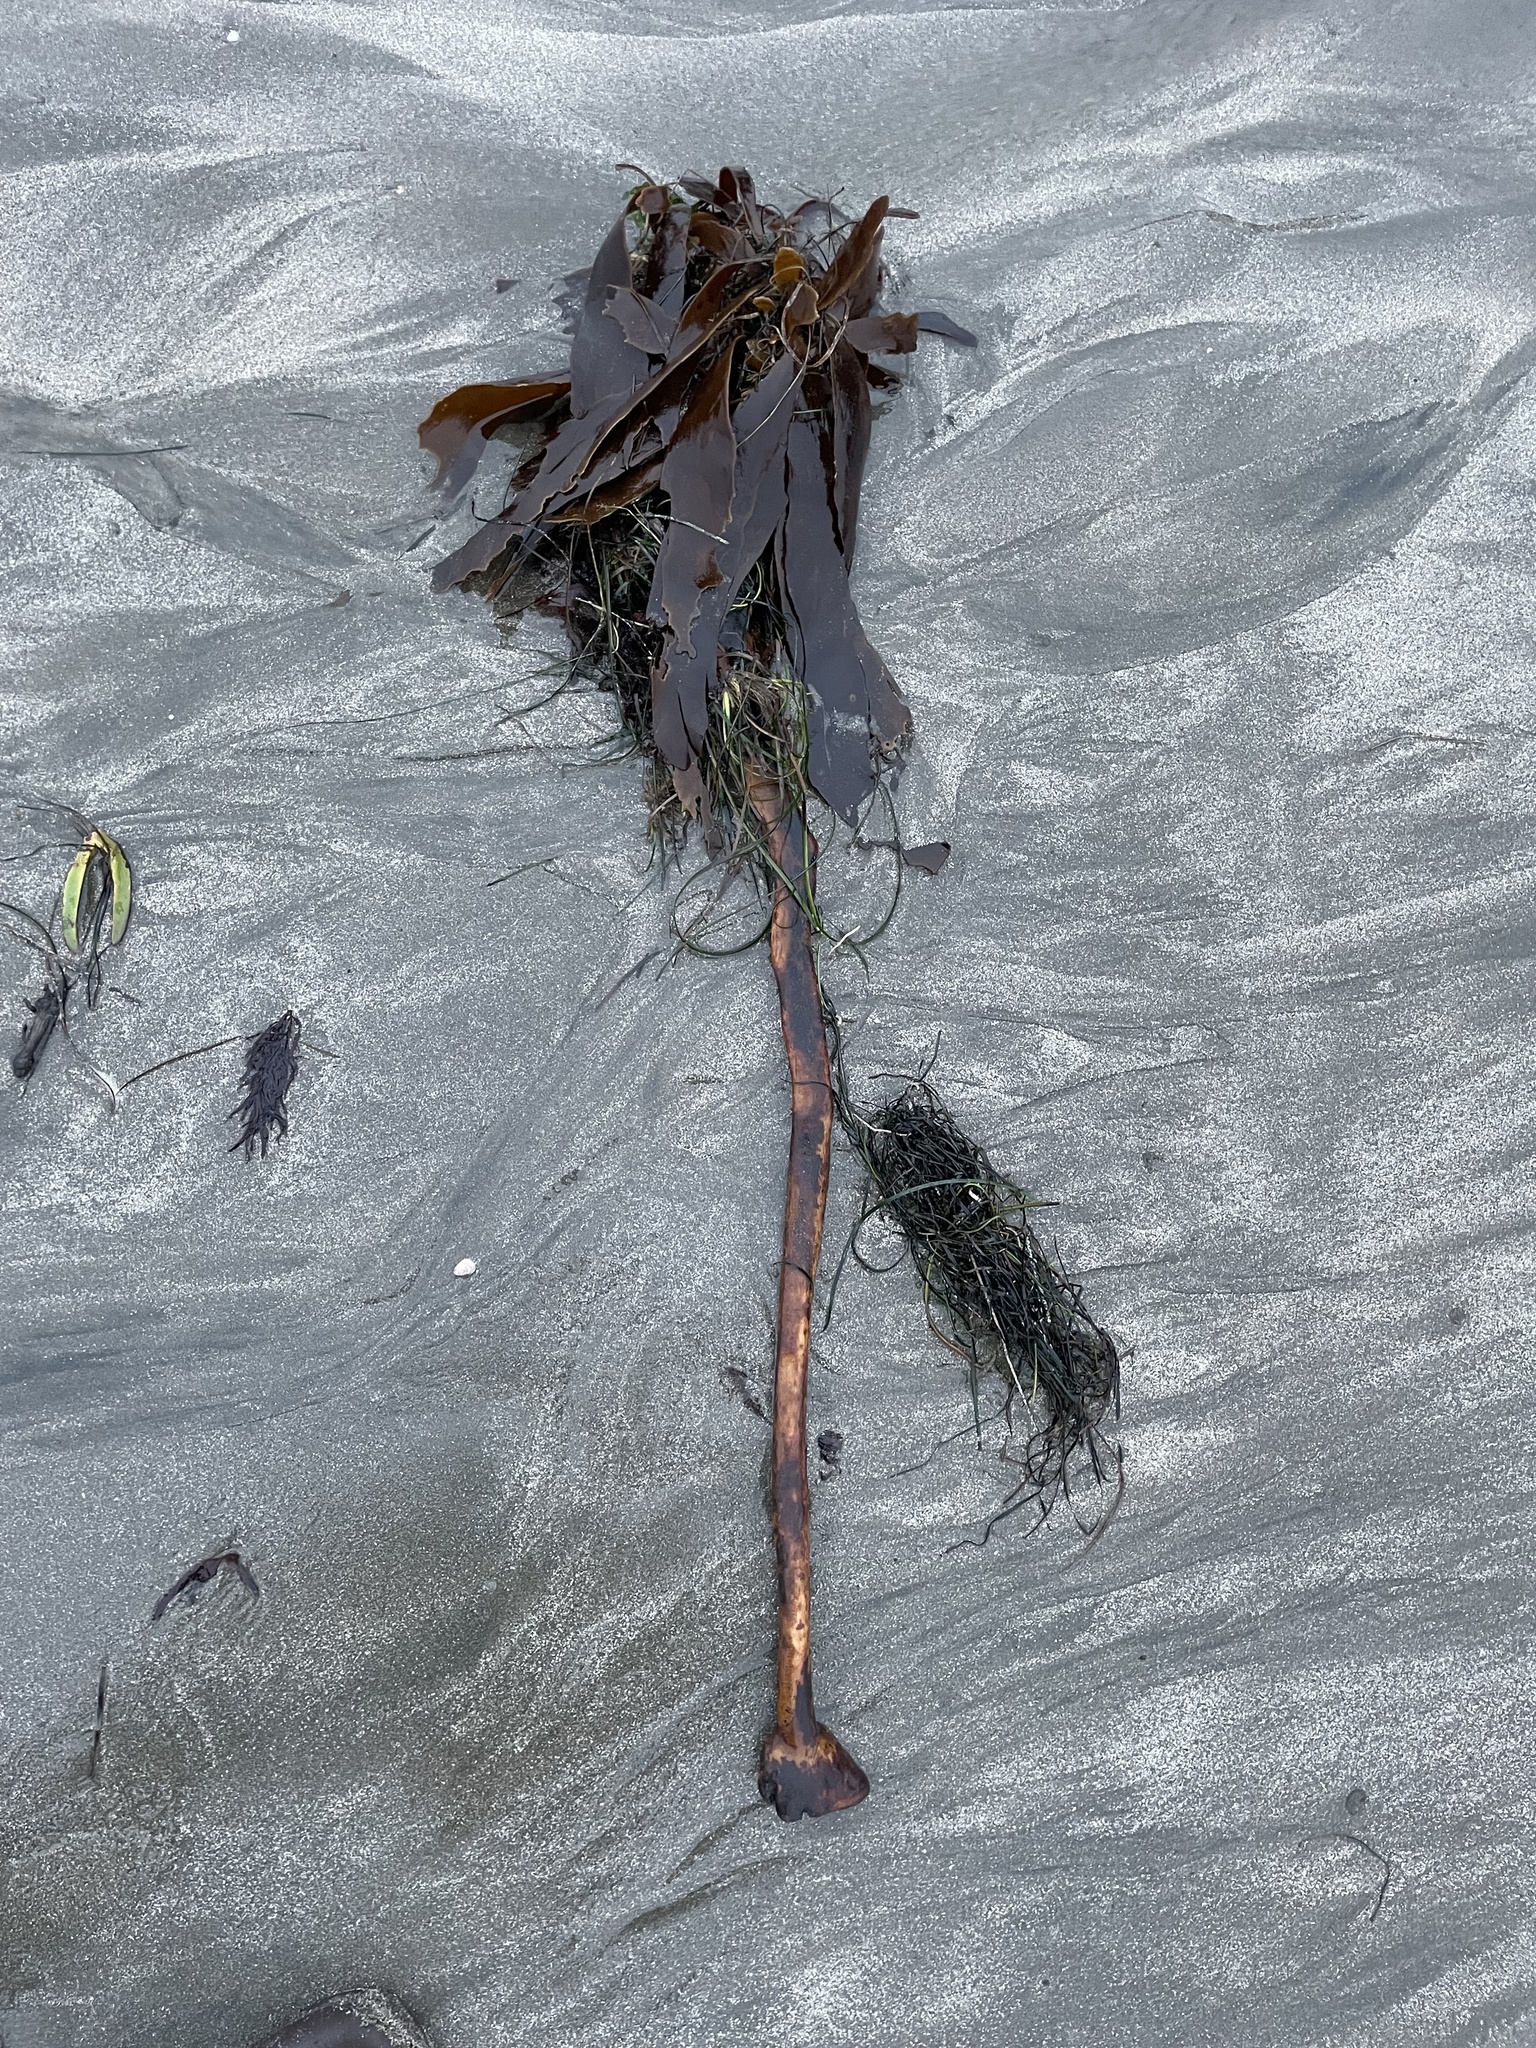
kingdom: Chromista
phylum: Ochrophyta
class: Phaeophyceae
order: Laminariales
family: Alariaceae
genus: Pterygophora
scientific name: Pterygophora californica
